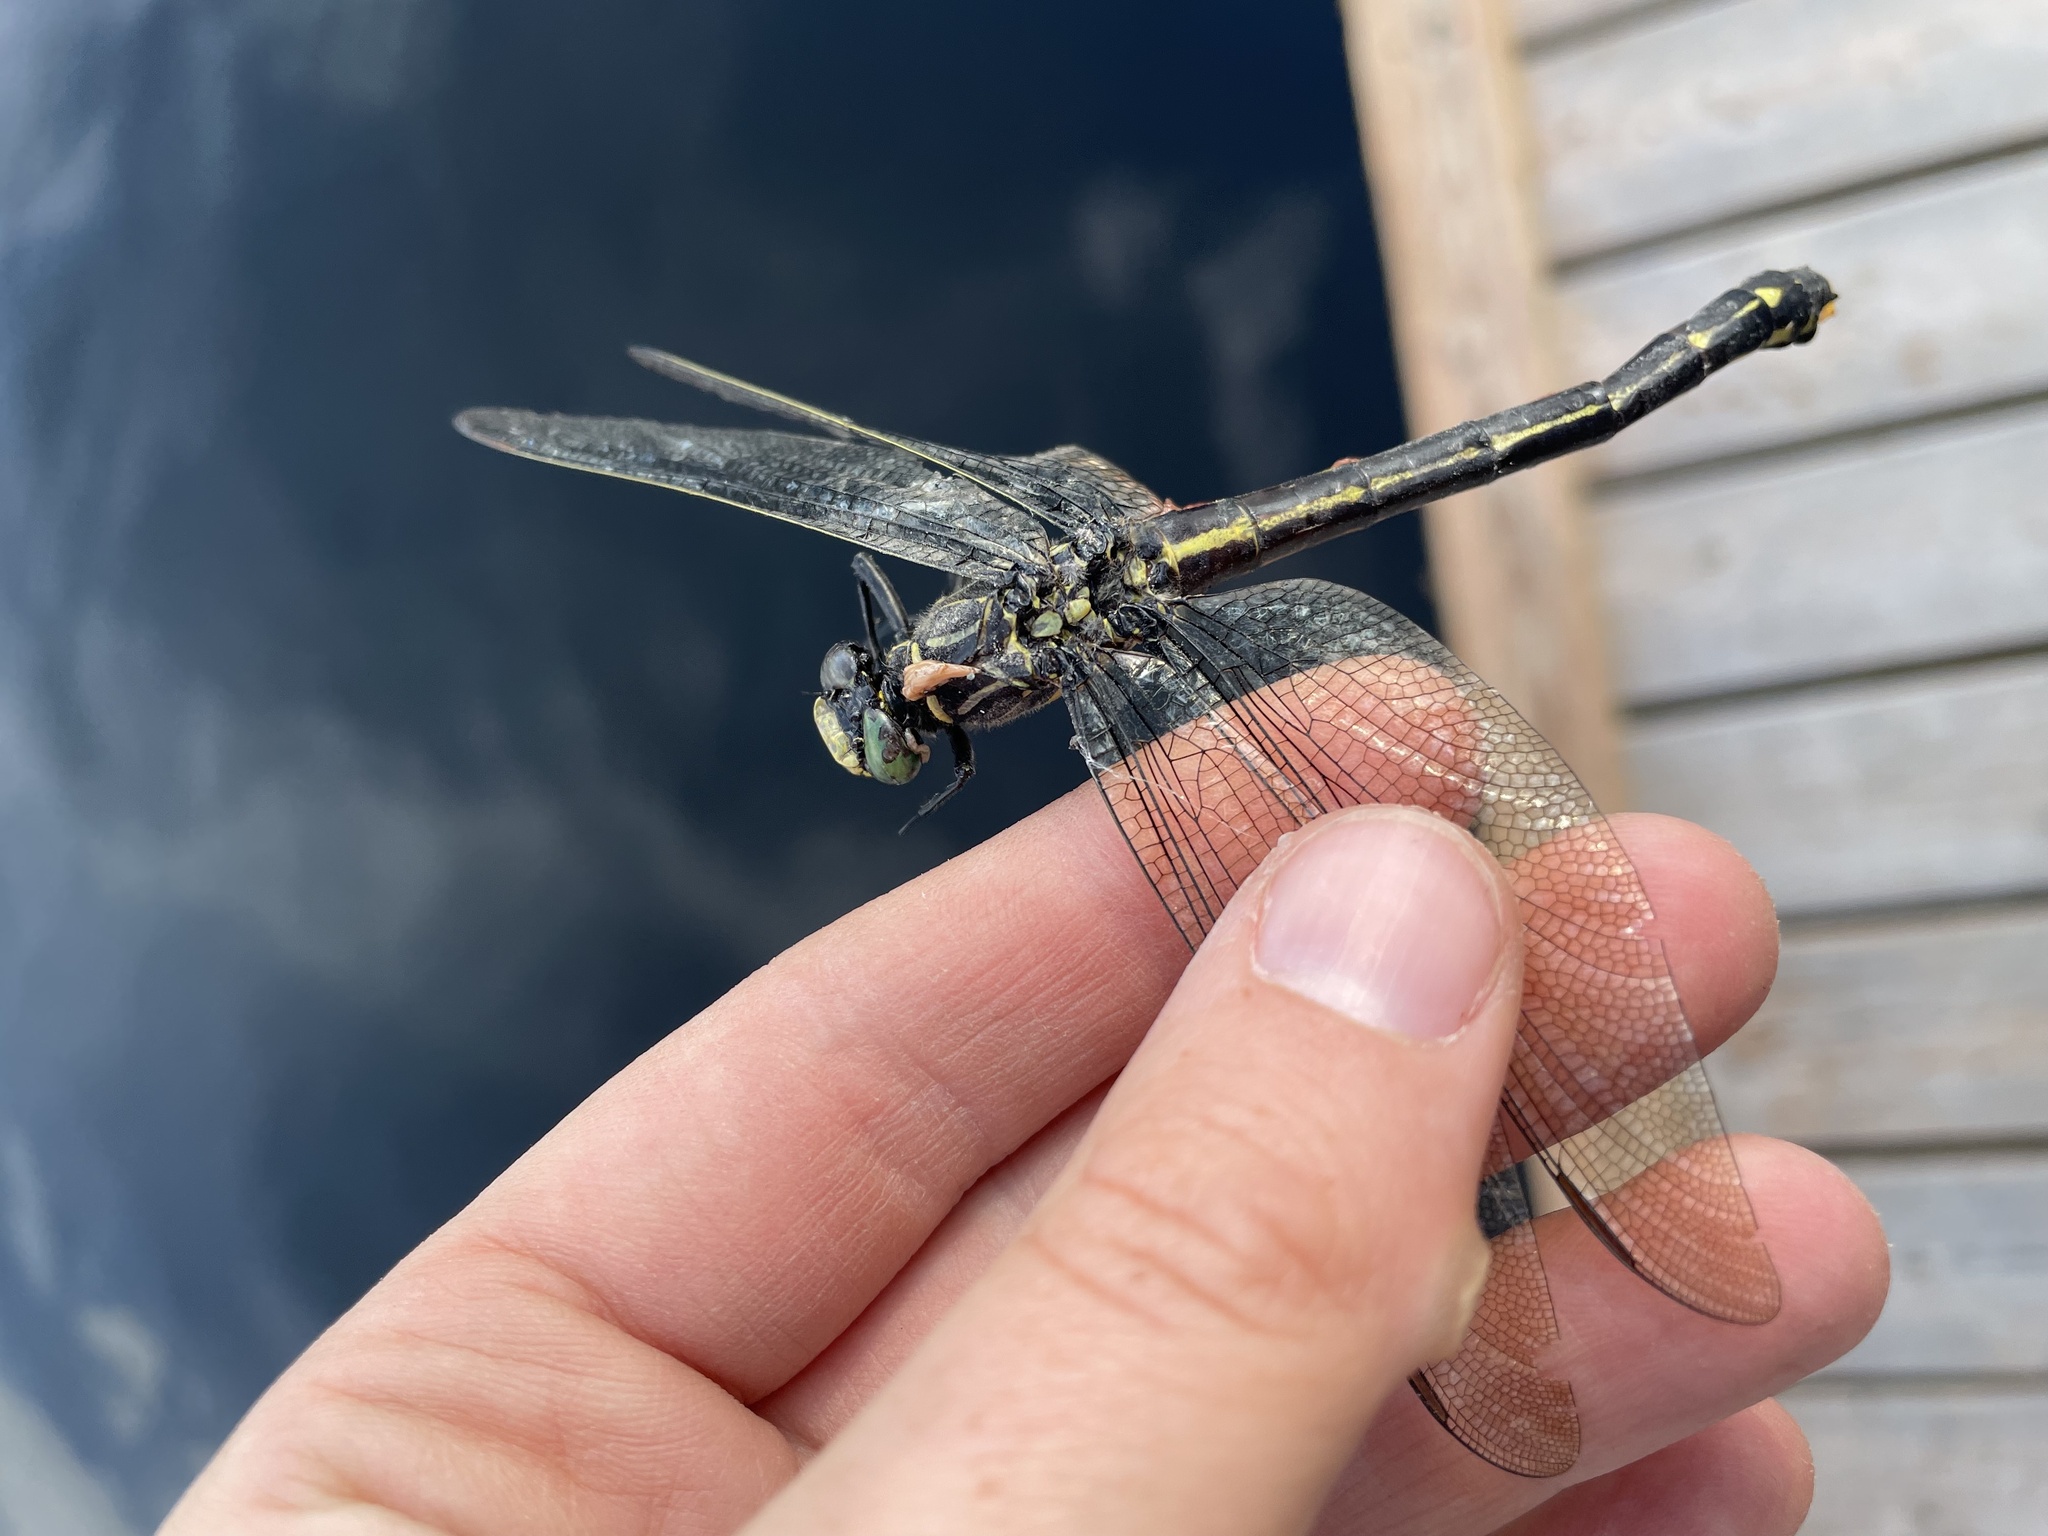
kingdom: Animalia
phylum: Arthropoda
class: Insecta
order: Odonata
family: Gomphidae
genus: Hagenius
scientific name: Hagenius brevistylus
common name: Dragonhunter
